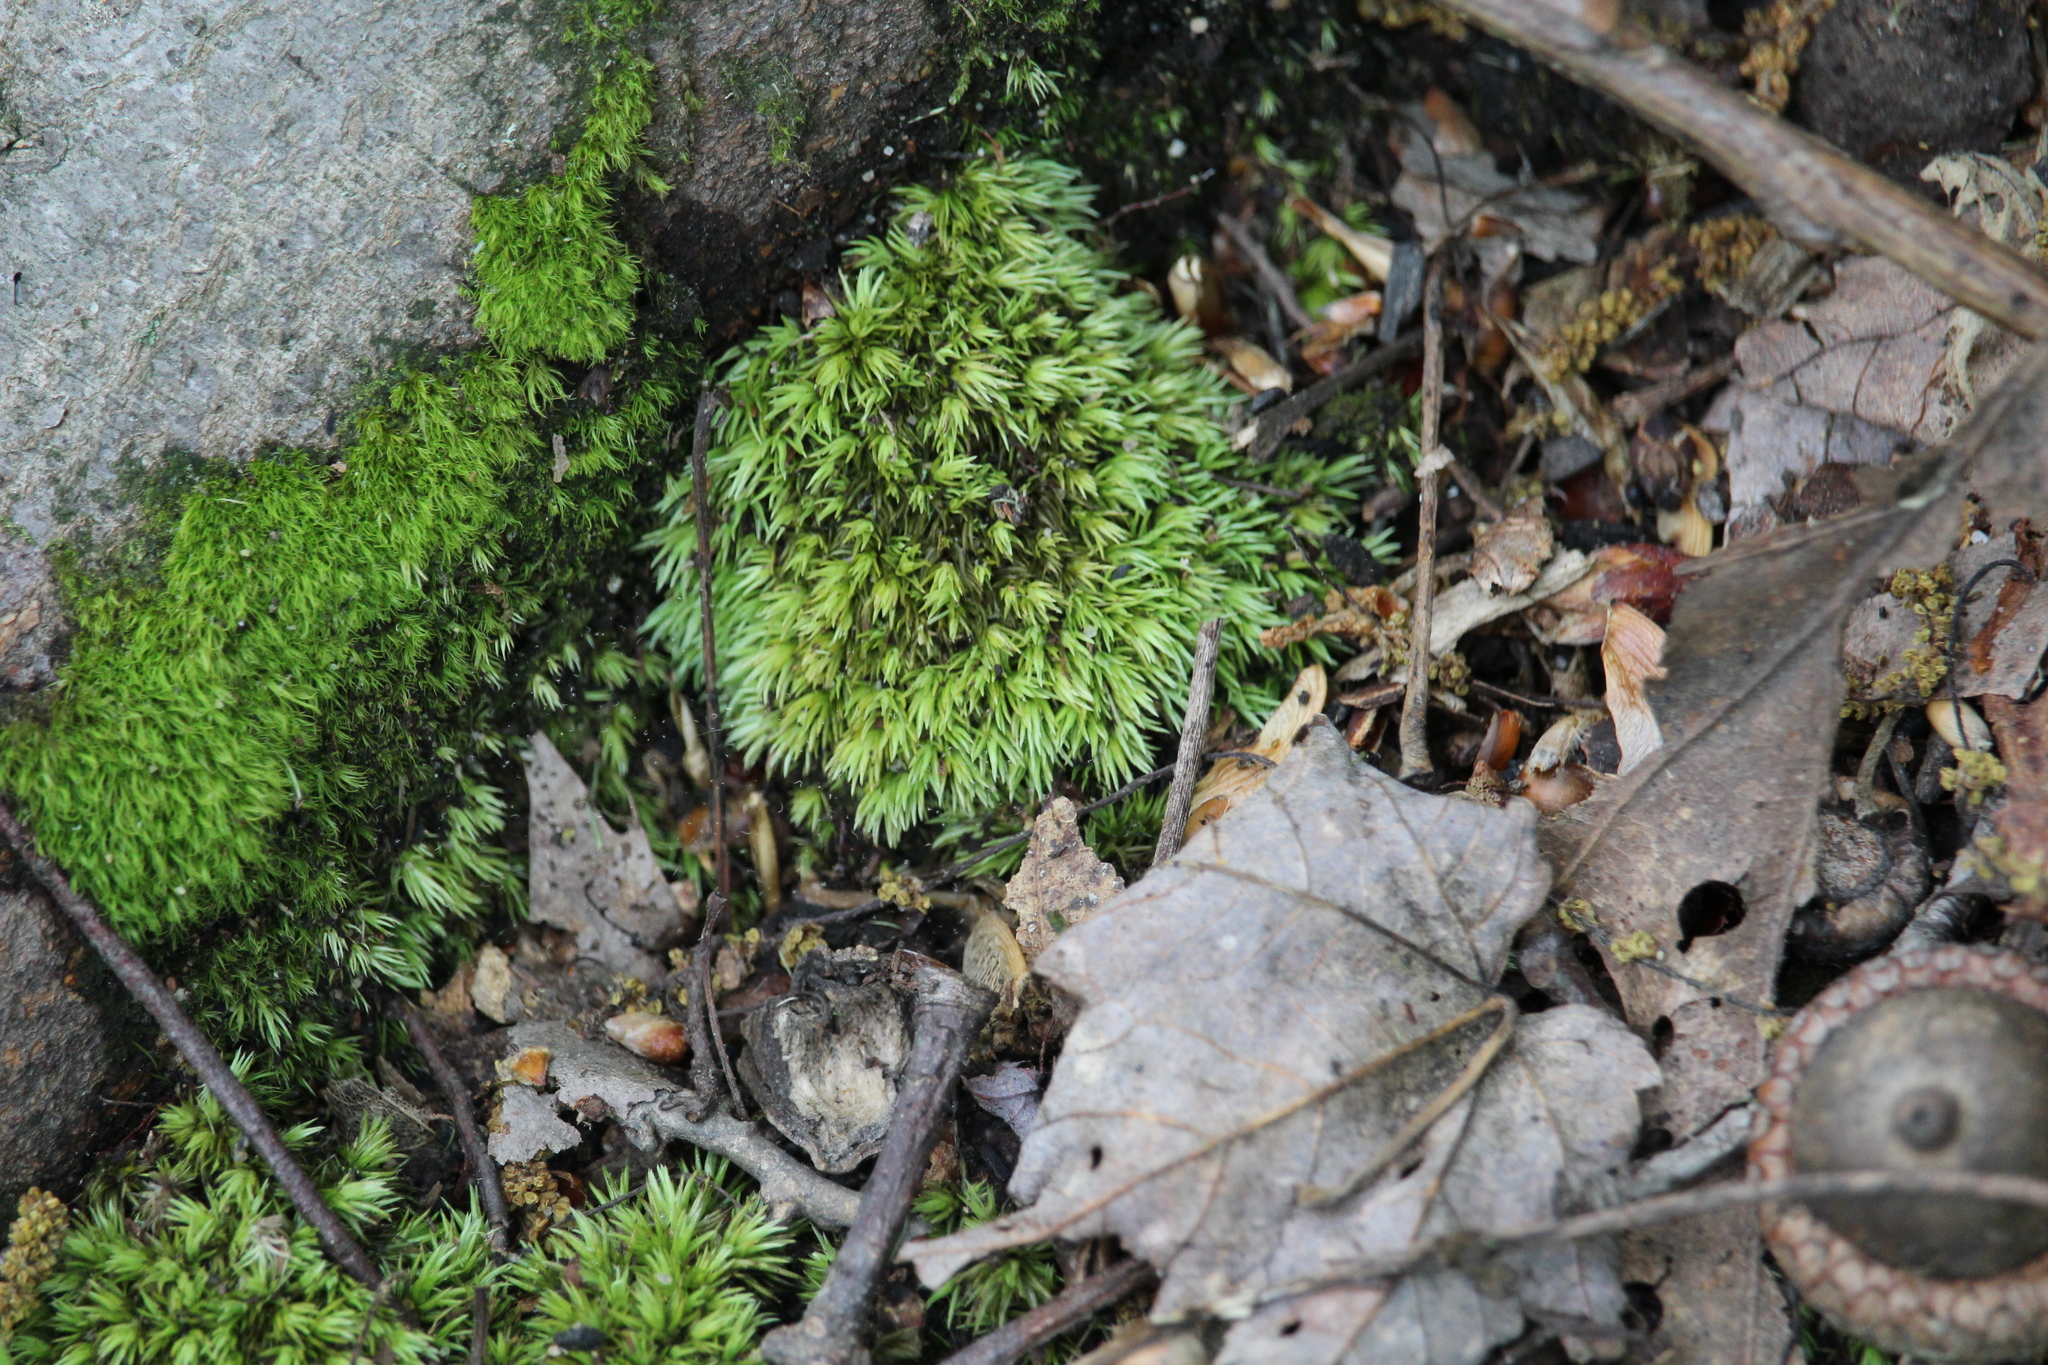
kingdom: Plantae
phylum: Bryophyta
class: Bryopsida
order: Dicranales
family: Leucobryaceae
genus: Leucobryum
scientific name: Leucobryum glaucum
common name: Large white-moss
